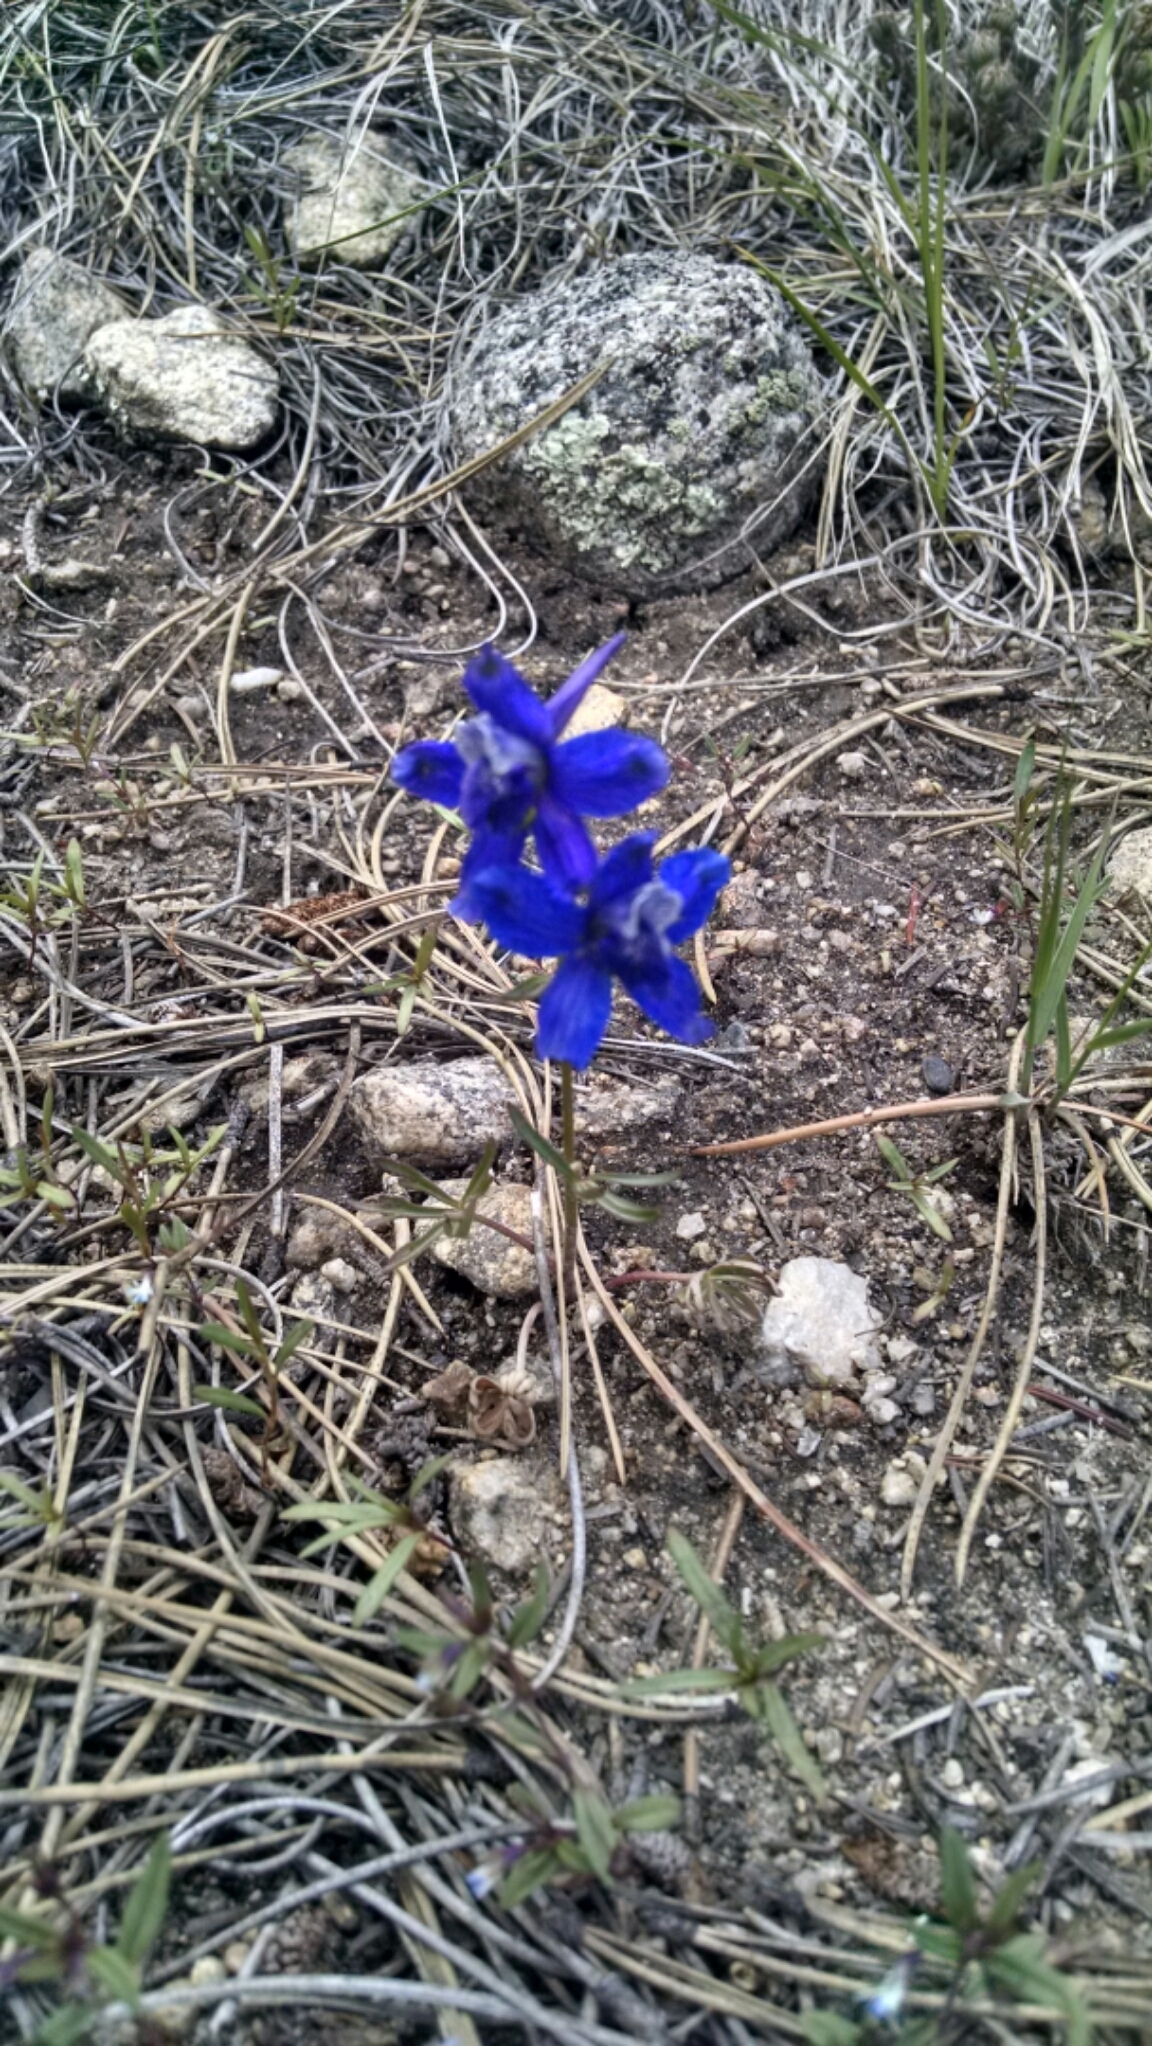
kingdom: Plantae
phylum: Tracheophyta
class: Magnoliopsida
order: Ranunculales
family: Ranunculaceae
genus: Delphinium
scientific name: Delphinium nuttallianum
